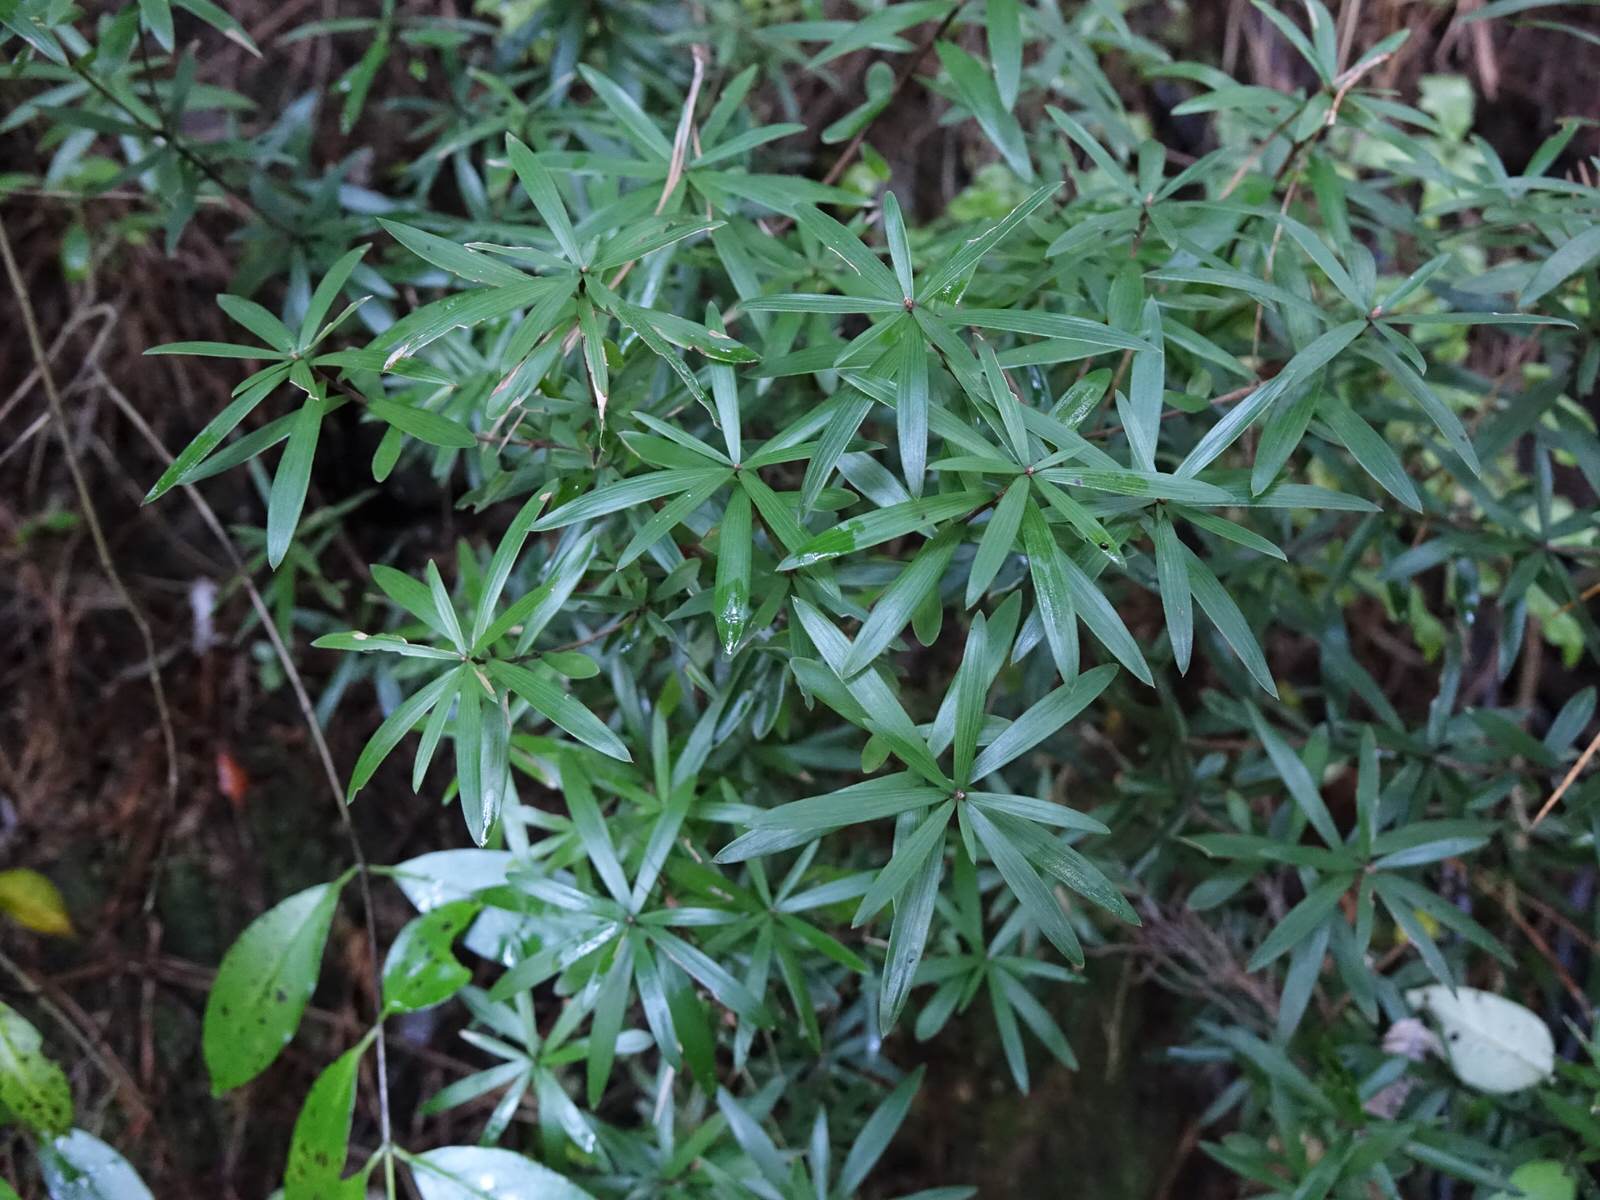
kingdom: Plantae
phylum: Tracheophyta
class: Magnoliopsida
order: Ericales
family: Ericaceae
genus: Leucopogon
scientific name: Leucopogon fasciculatus
